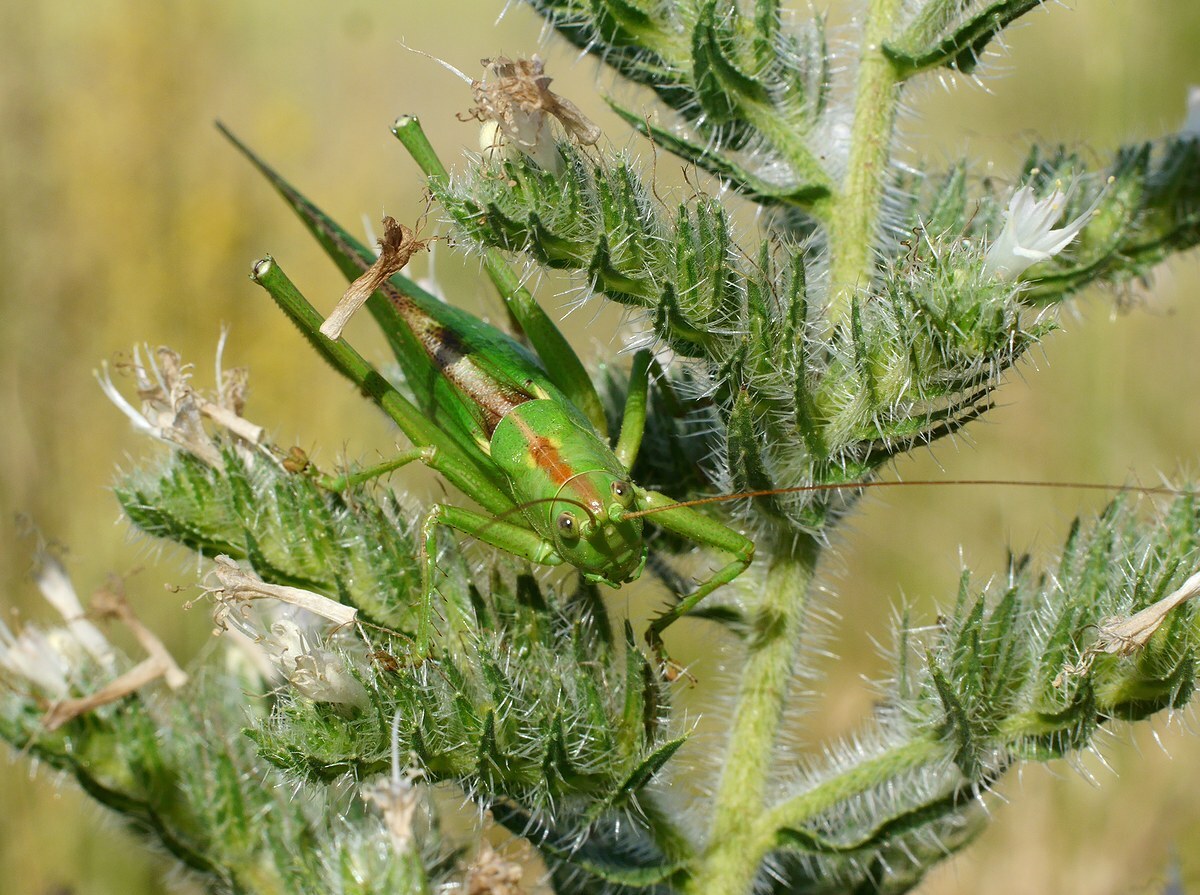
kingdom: Animalia
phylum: Arthropoda
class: Insecta
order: Orthoptera
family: Tettigoniidae
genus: Tettigonia
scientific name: Tettigonia viridissima
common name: Great green bush-cricket
